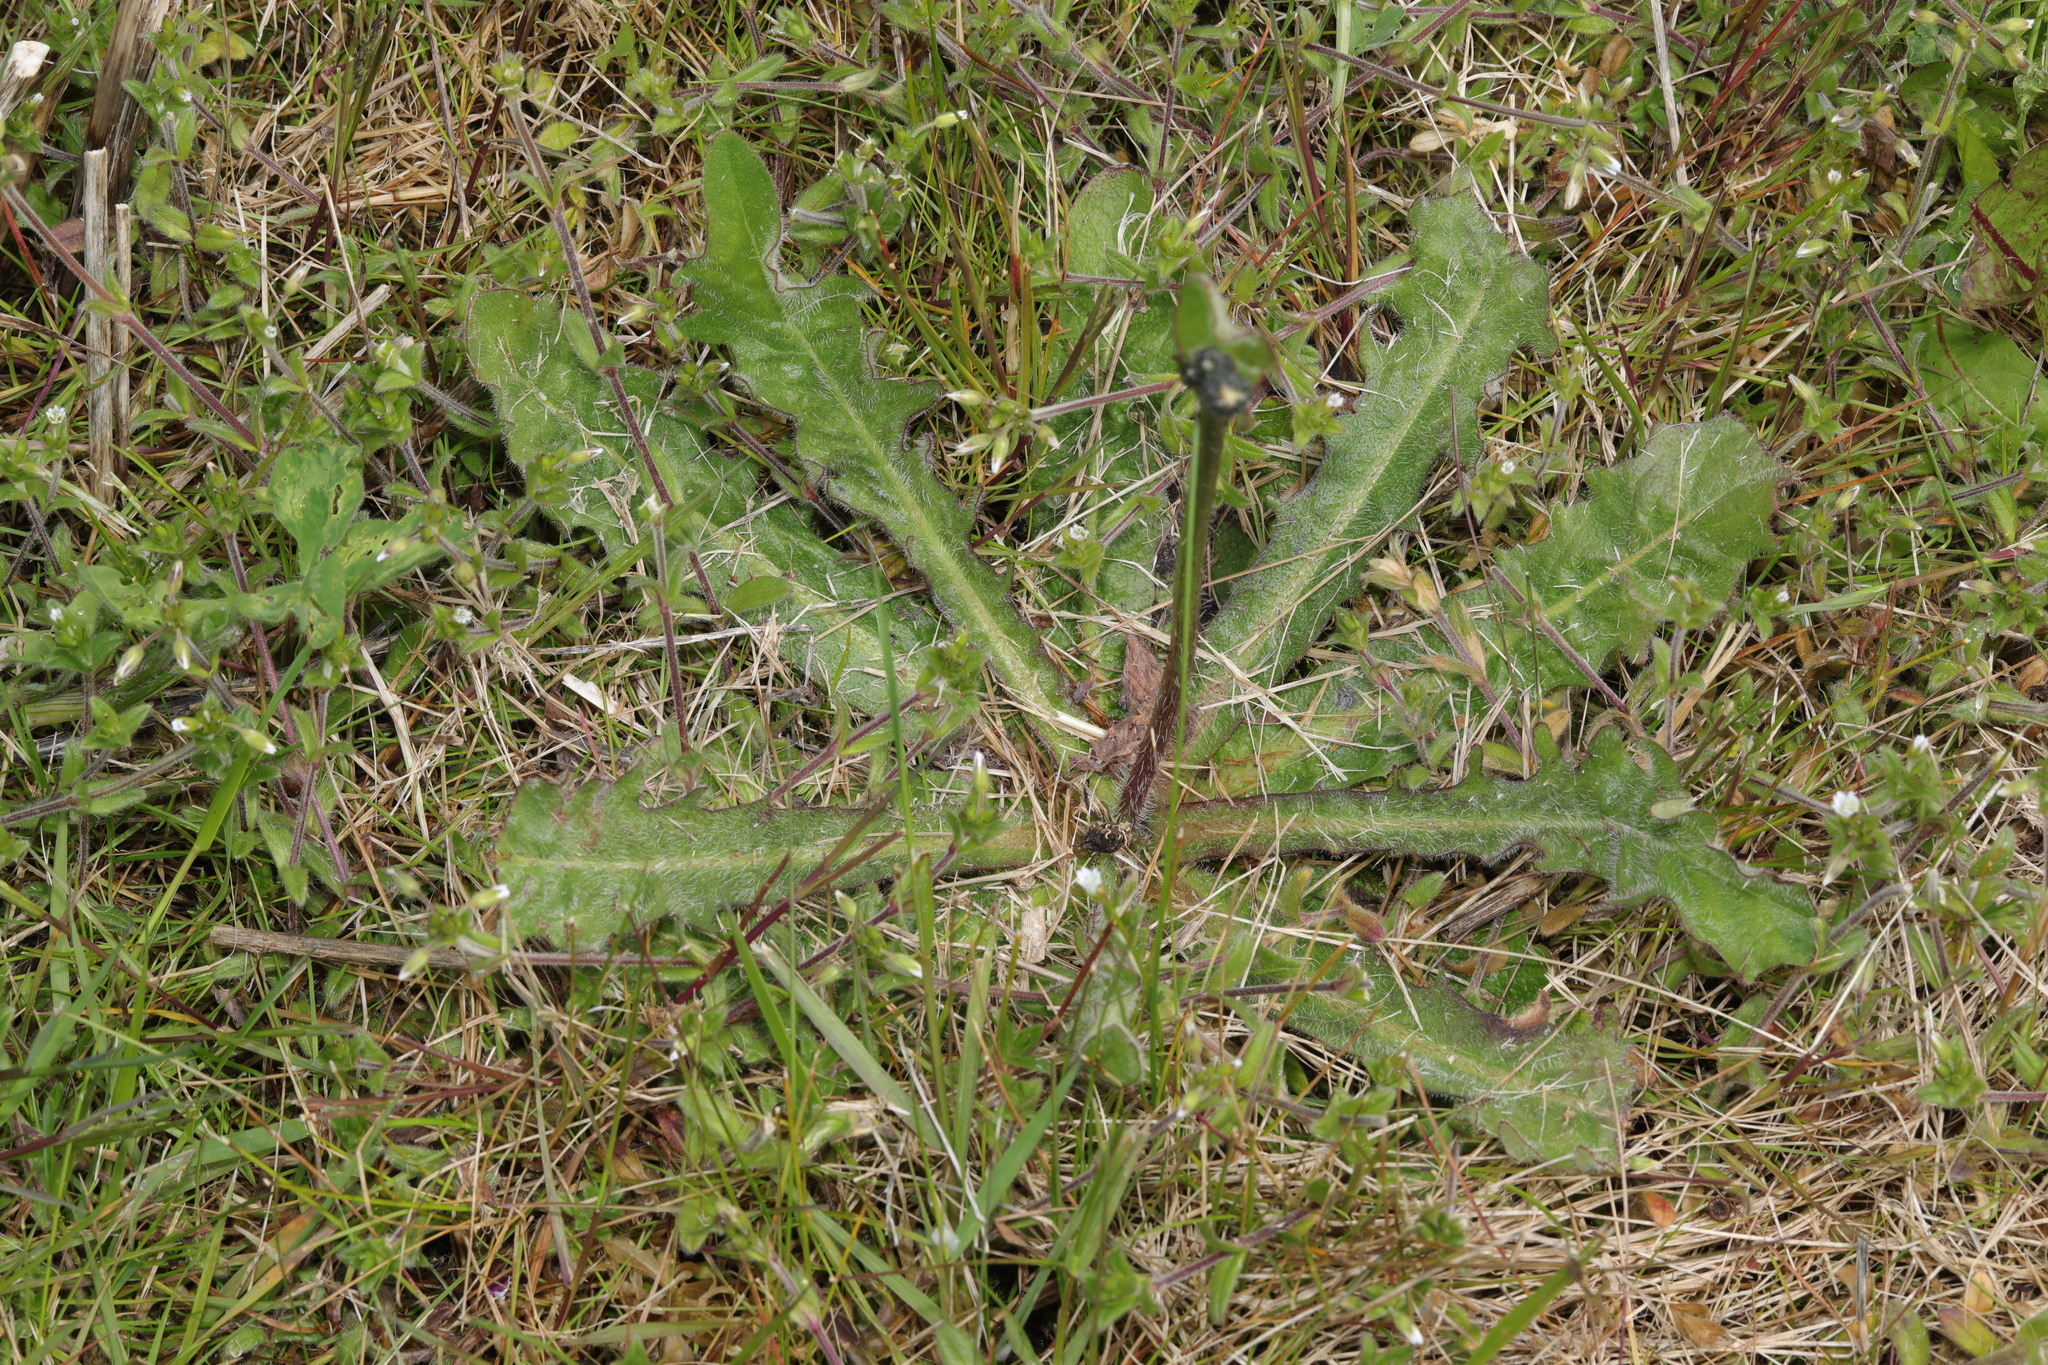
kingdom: Plantae
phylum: Tracheophyta
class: Magnoliopsida
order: Asterales
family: Asteraceae
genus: Hypochaeris
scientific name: Hypochaeris radicata
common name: Flatweed
